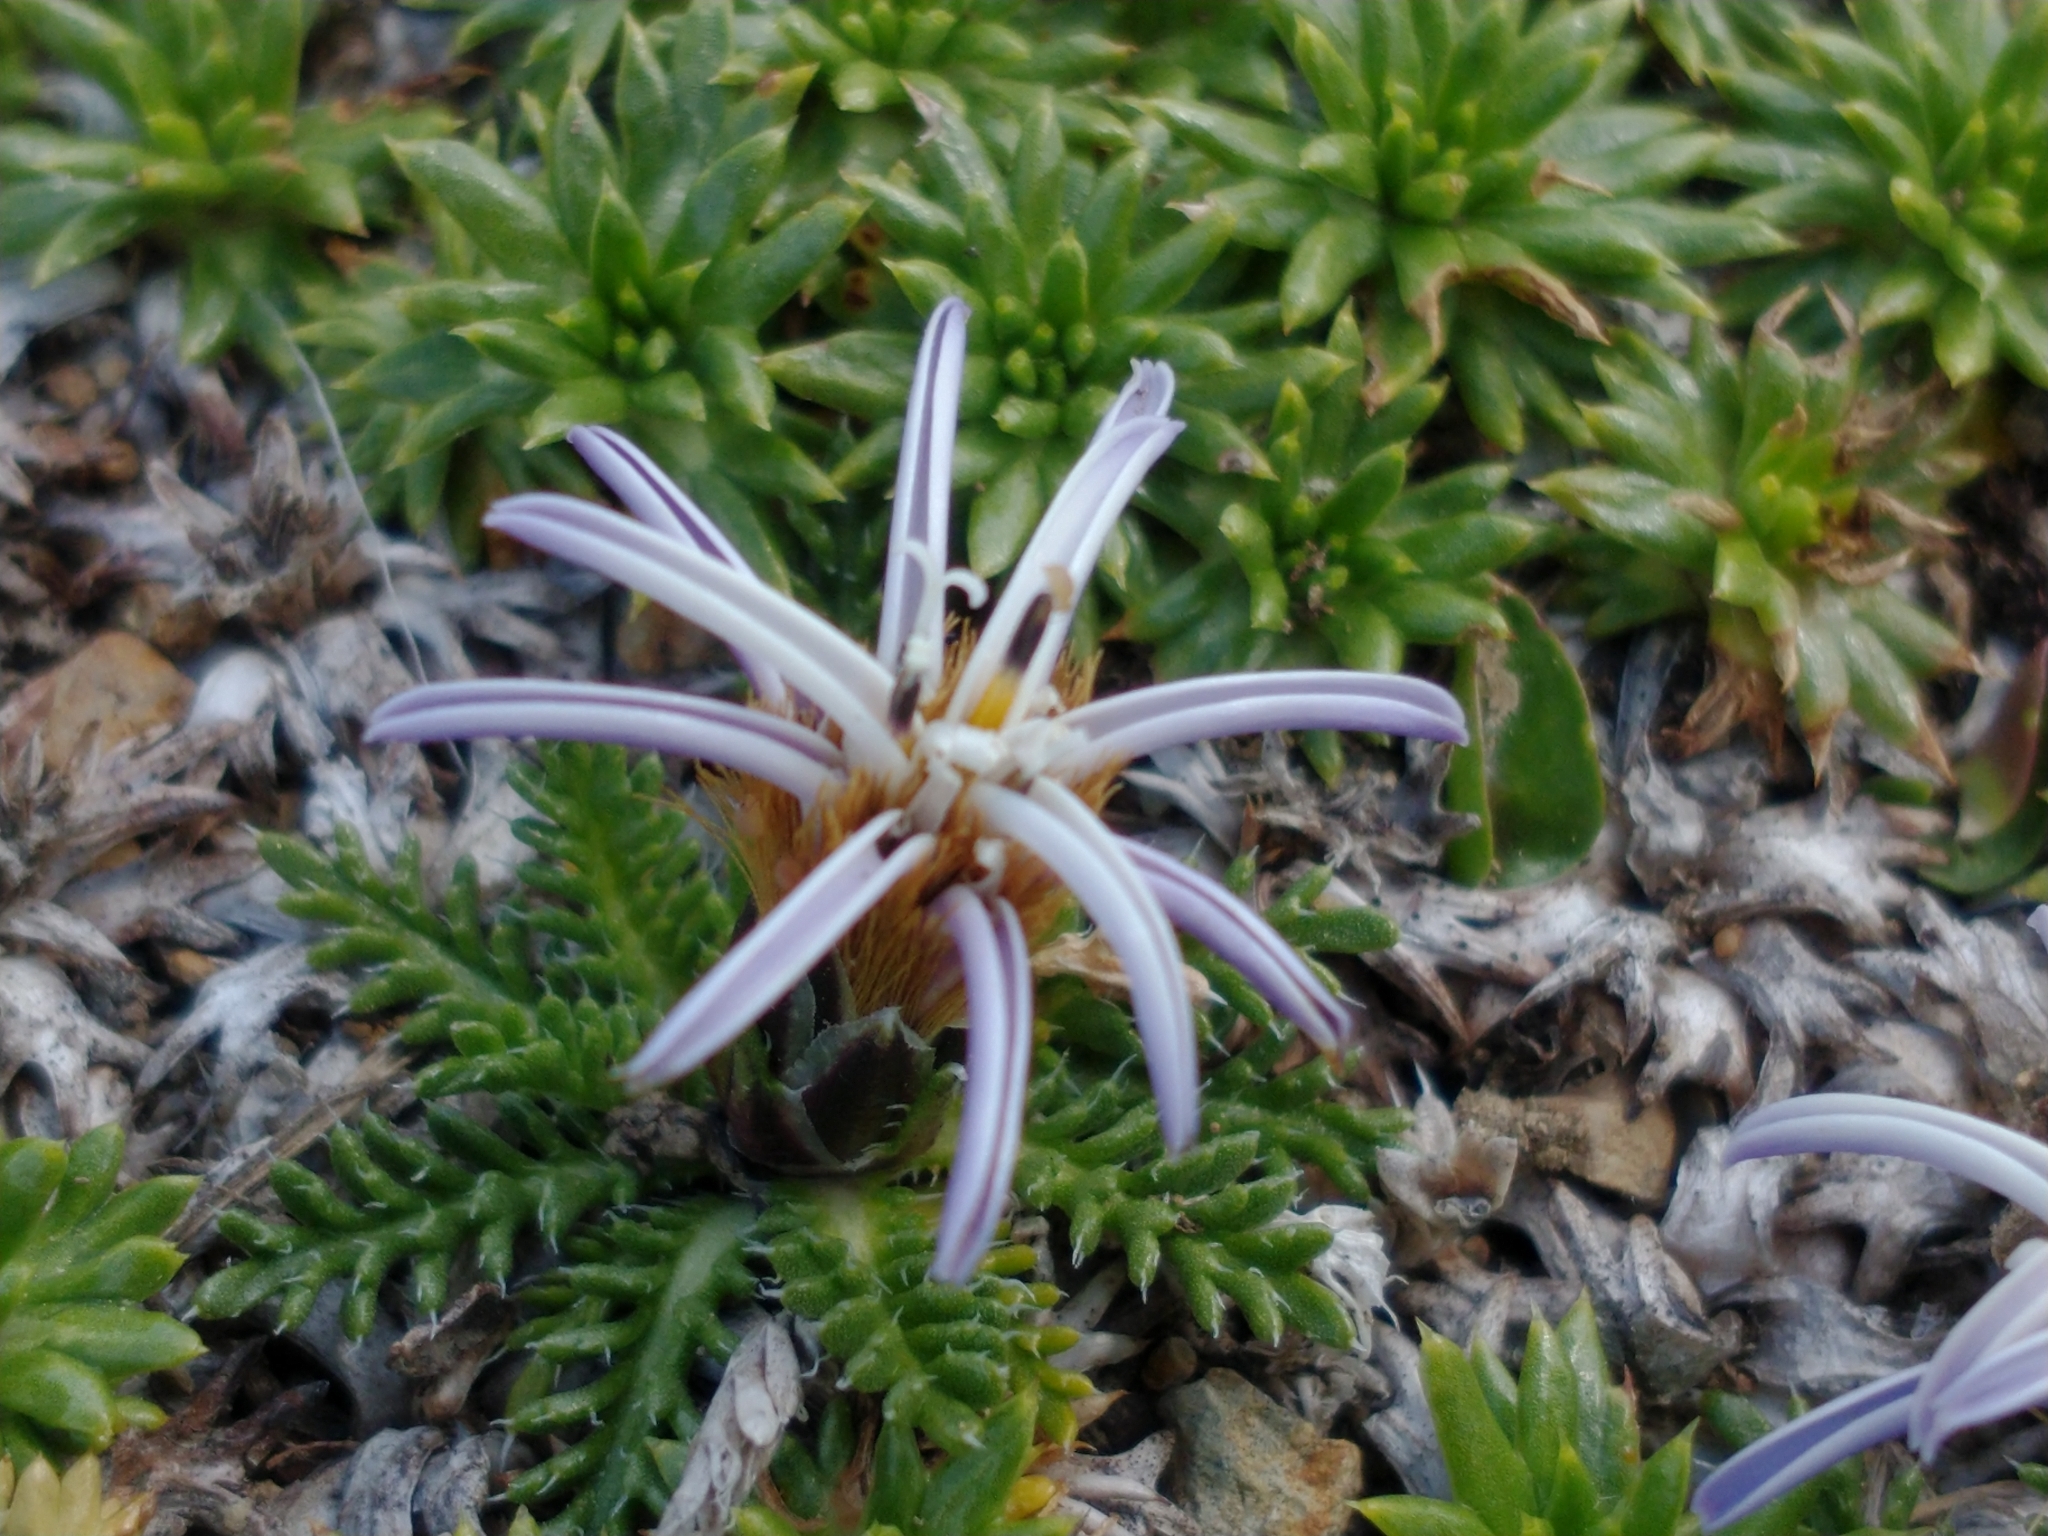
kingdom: Plantae
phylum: Tracheophyta
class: Magnoliopsida
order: Asterales
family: Asteraceae
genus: Perezia
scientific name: Perezia pilifera
